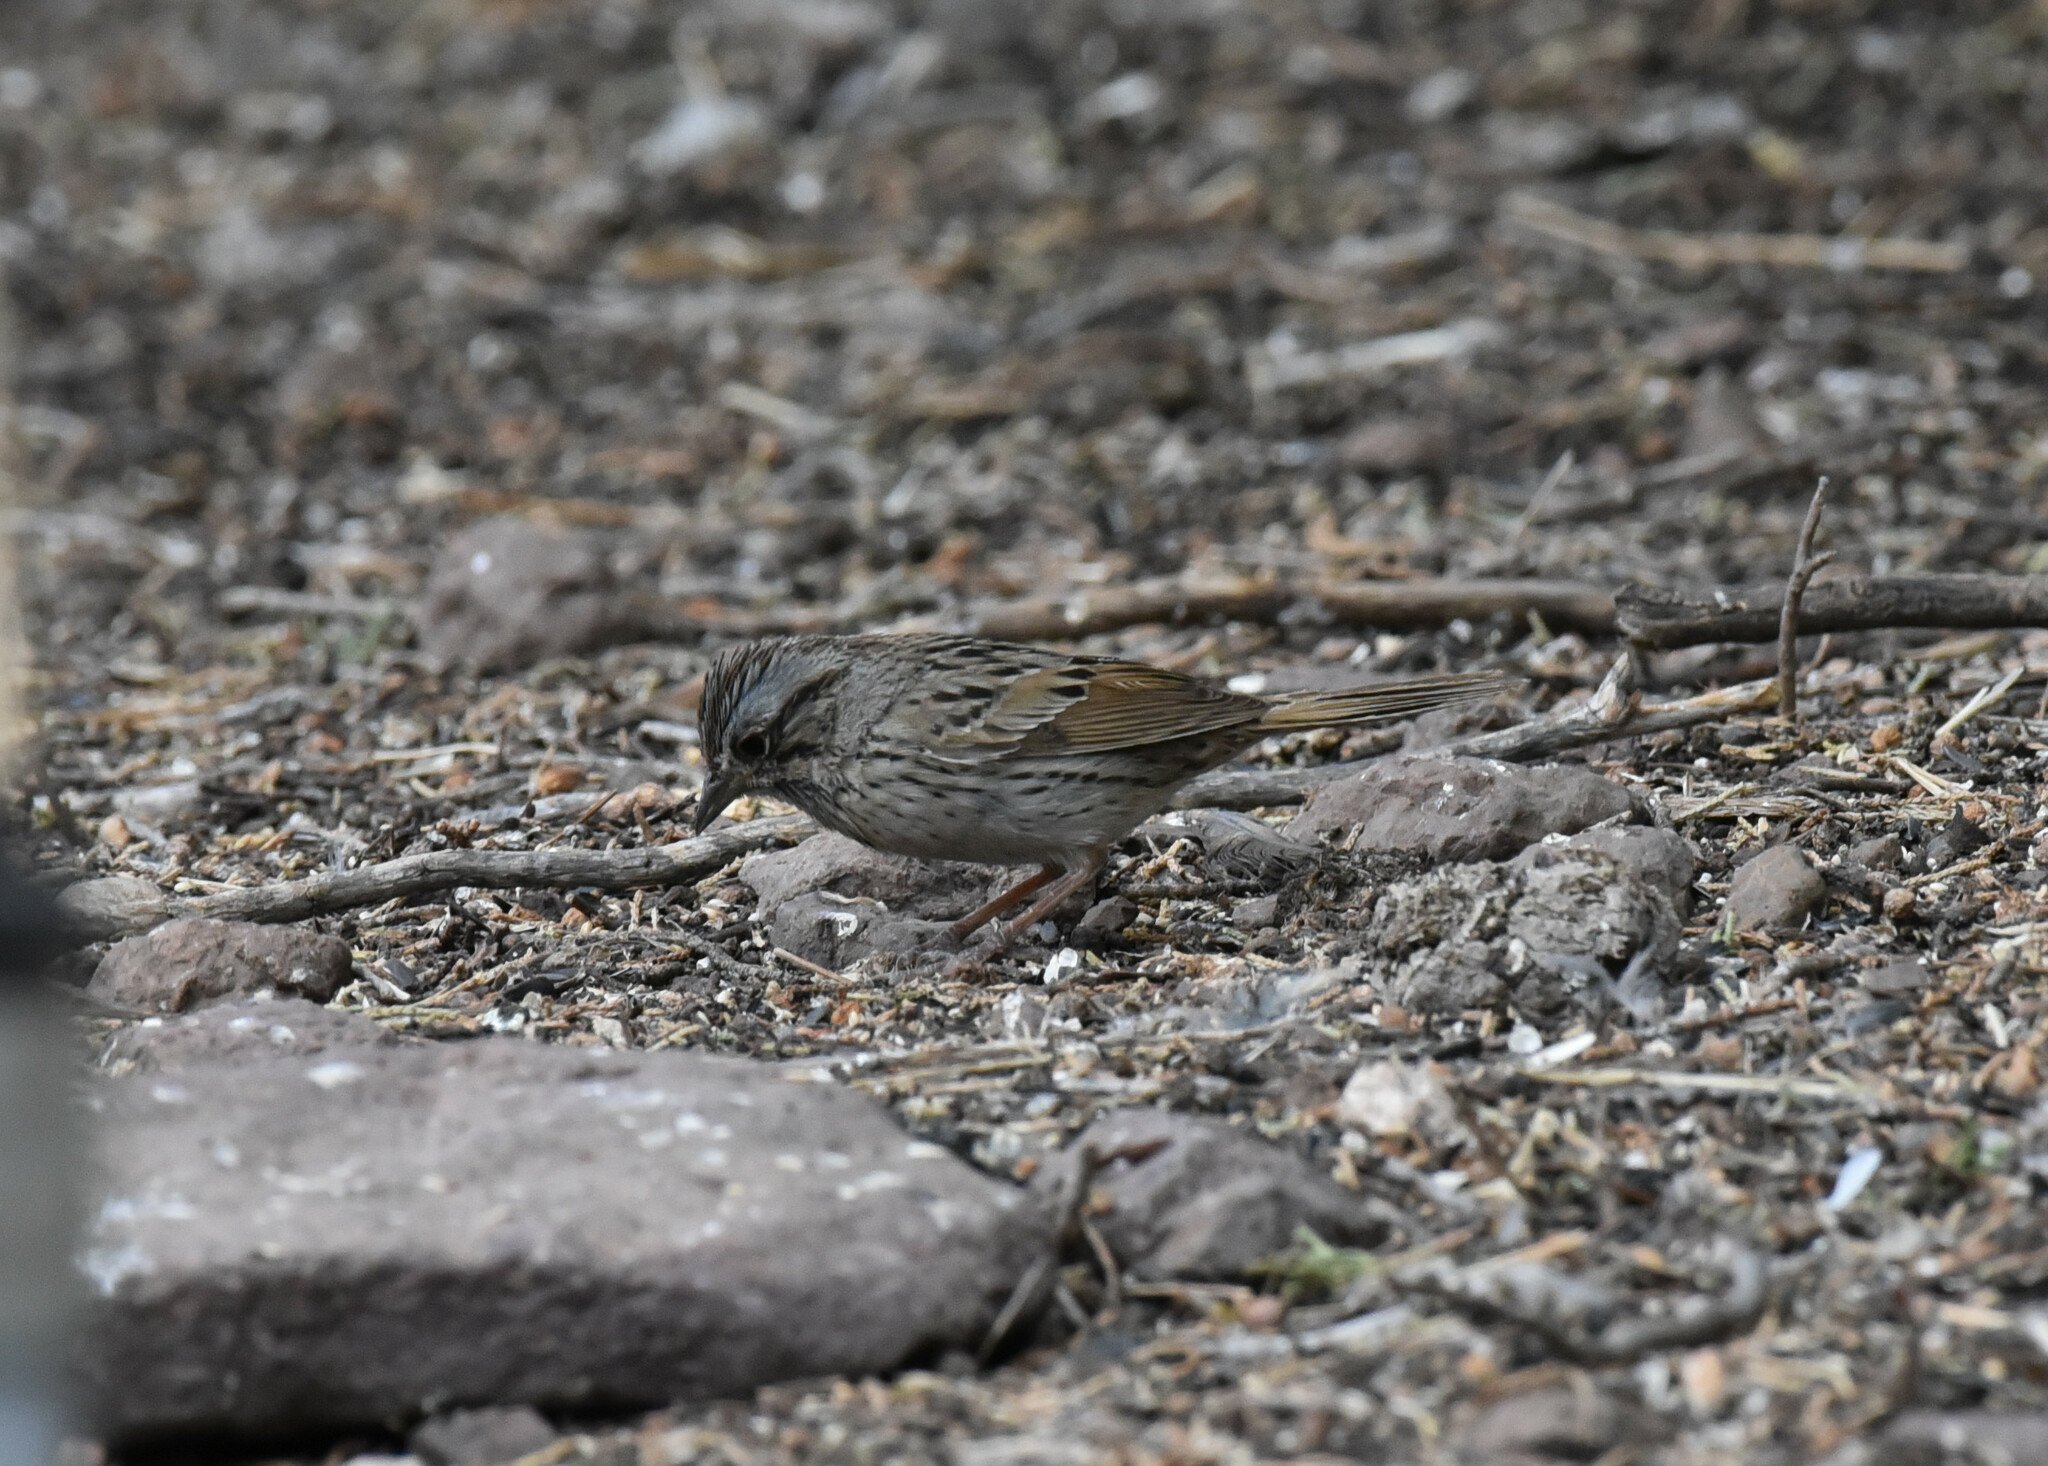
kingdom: Animalia
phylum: Chordata
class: Aves
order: Passeriformes
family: Passerellidae
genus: Melospiza
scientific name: Melospiza lincolnii
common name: Lincoln's sparrow
